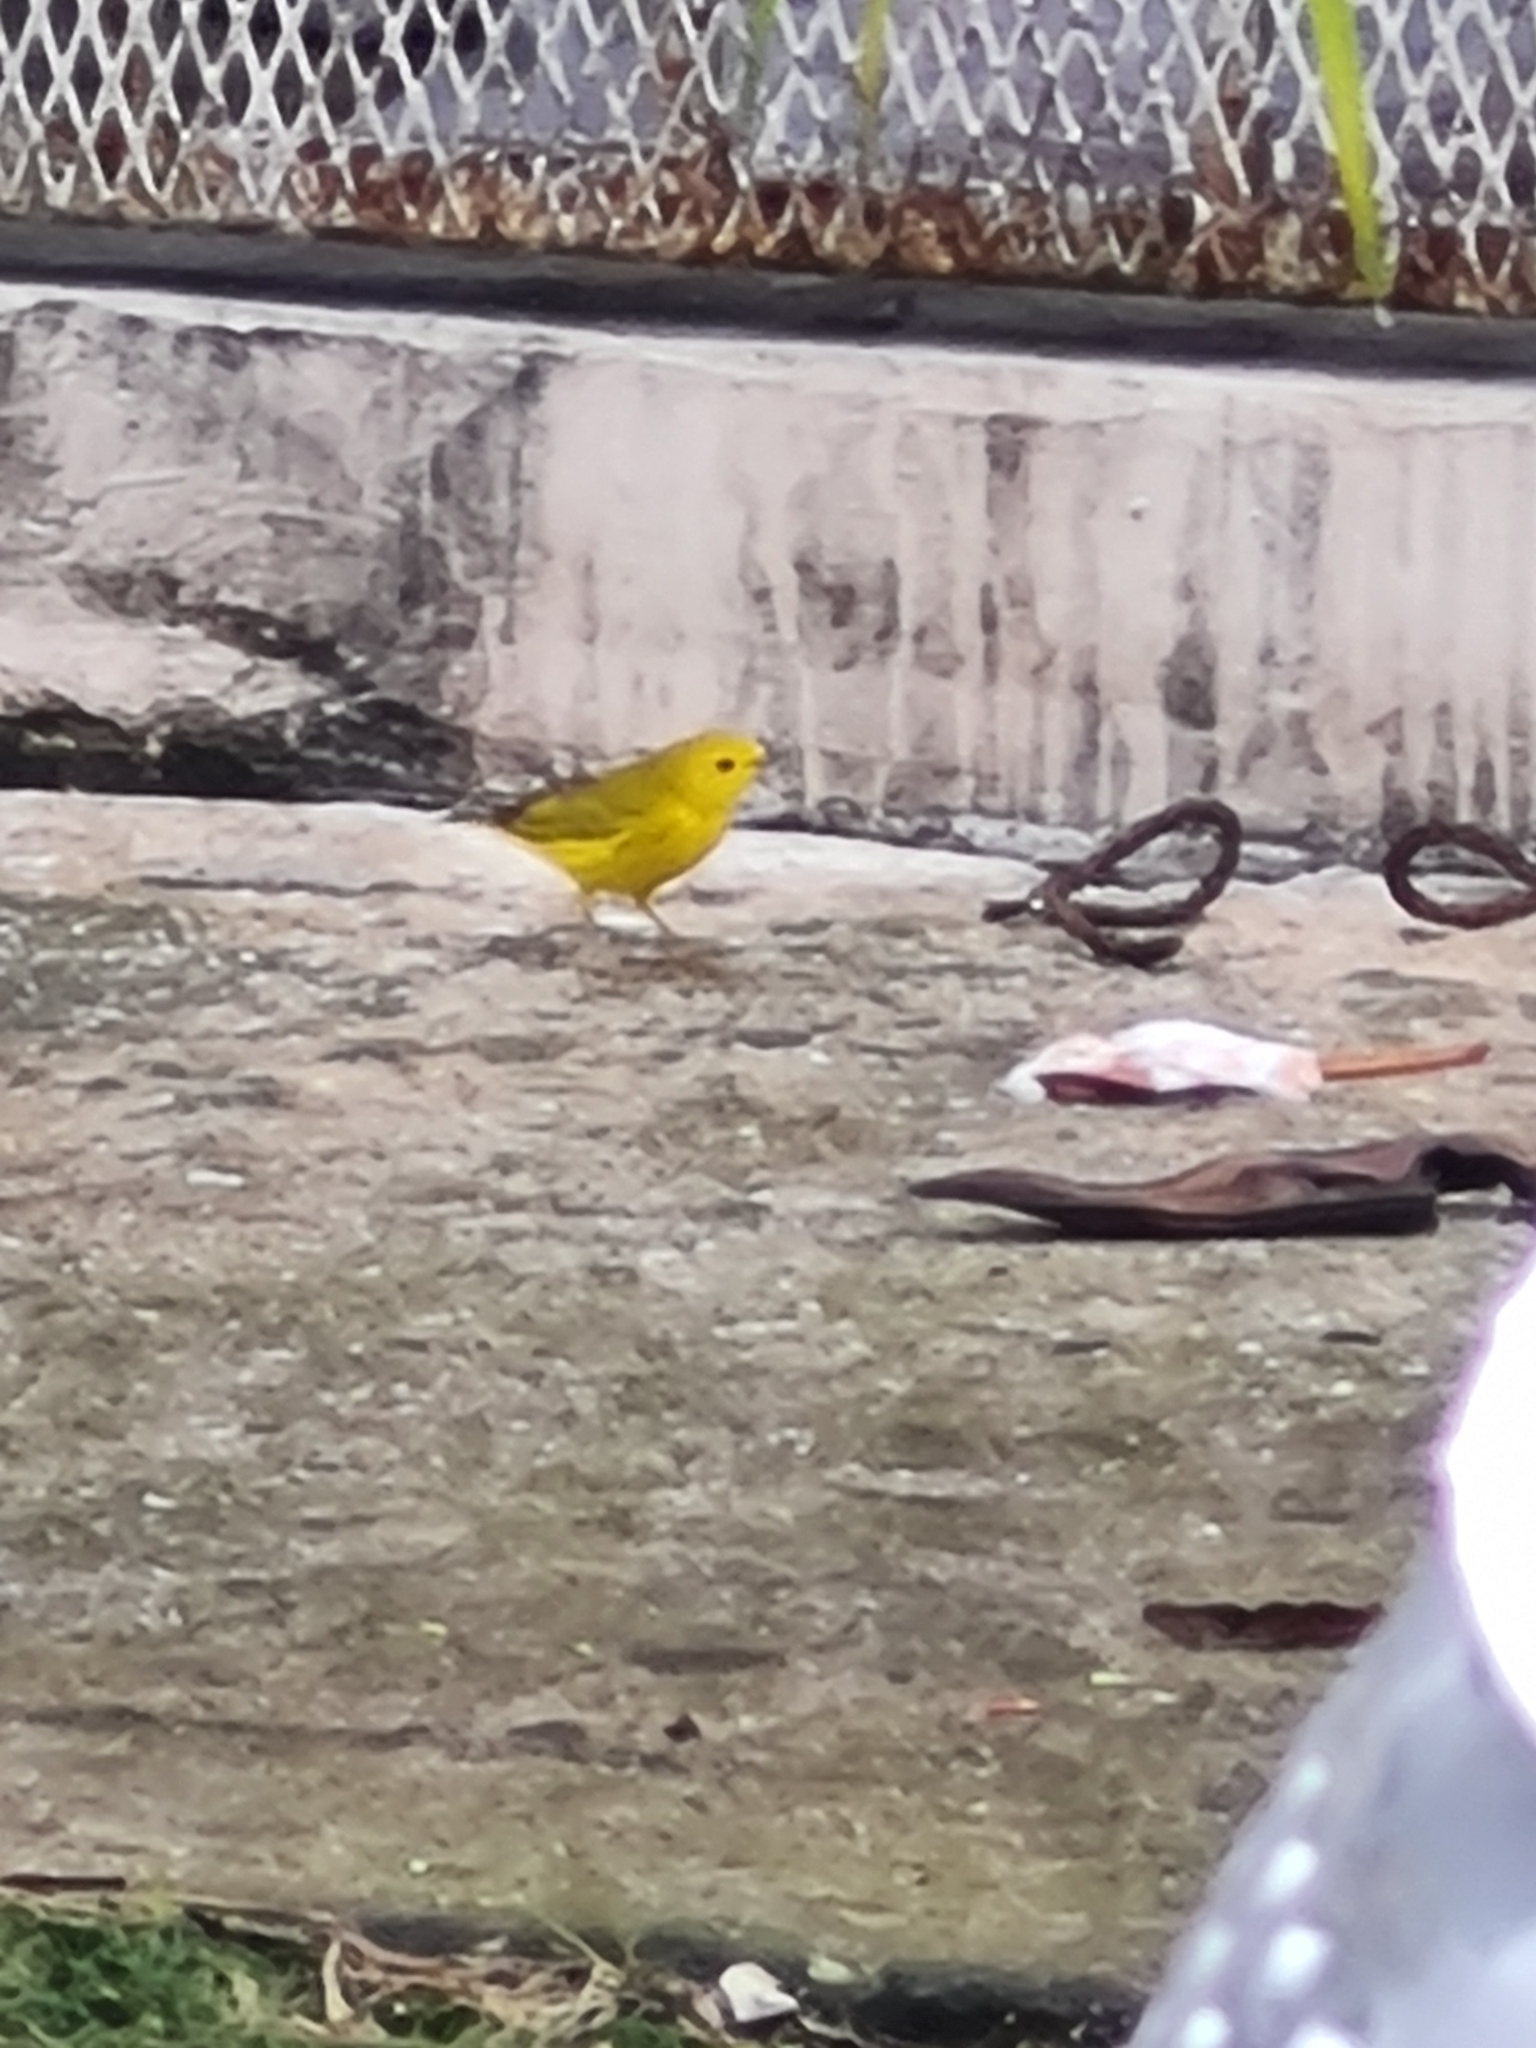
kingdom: Animalia
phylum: Chordata
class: Aves
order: Passeriformes
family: Parulidae
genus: Setophaga
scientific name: Setophaga petechia
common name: Yellow warbler
